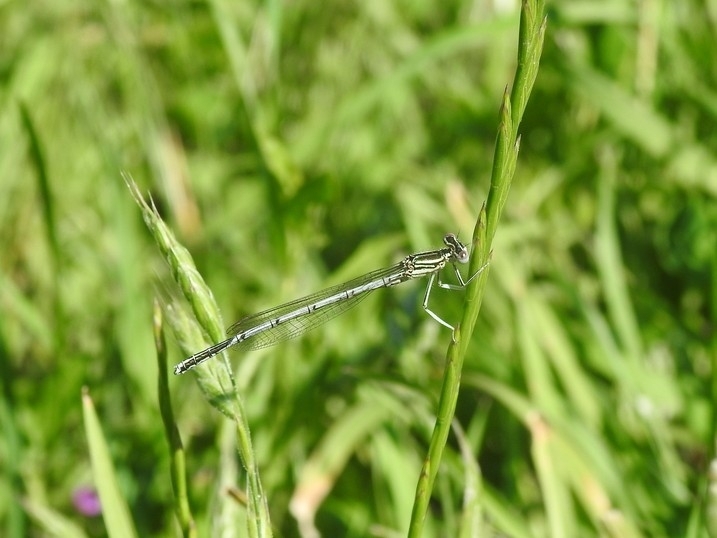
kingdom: Animalia
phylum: Arthropoda
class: Insecta
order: Odonata
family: Platycnemididae
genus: Platycnemis
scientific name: Platycnemis pennipes
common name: White-legged damselfly
